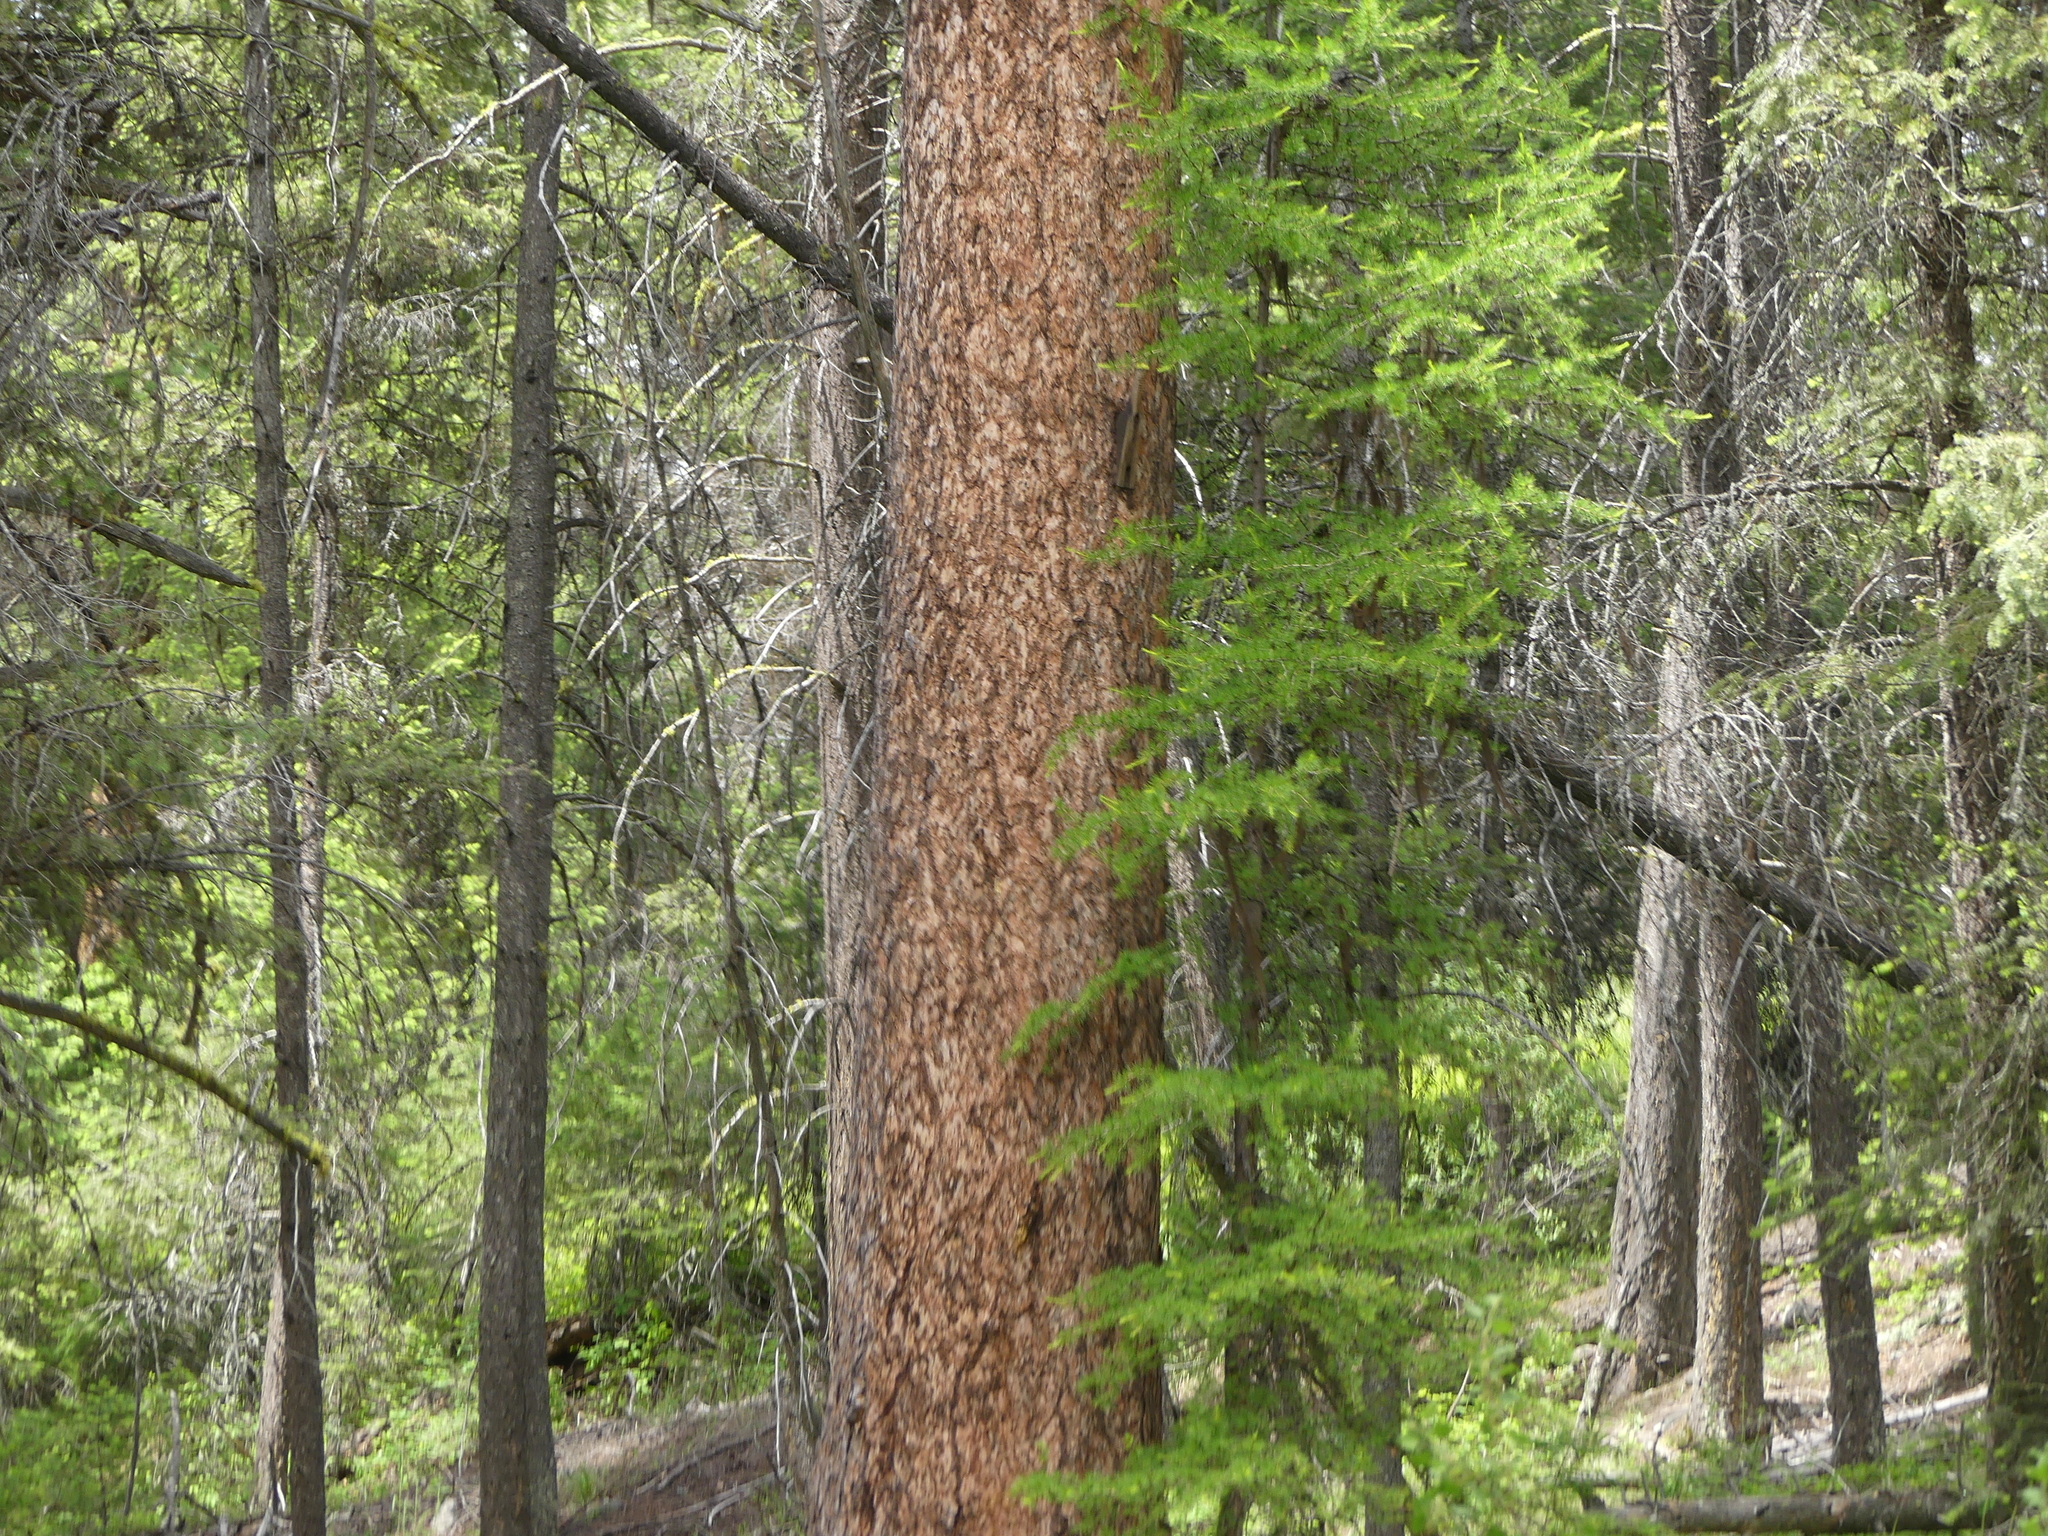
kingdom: Plantae
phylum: Tracheophyta
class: Pinopsida
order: Pinales
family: Pinaceae
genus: Larix
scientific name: Larix occidentalis
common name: Western larch
